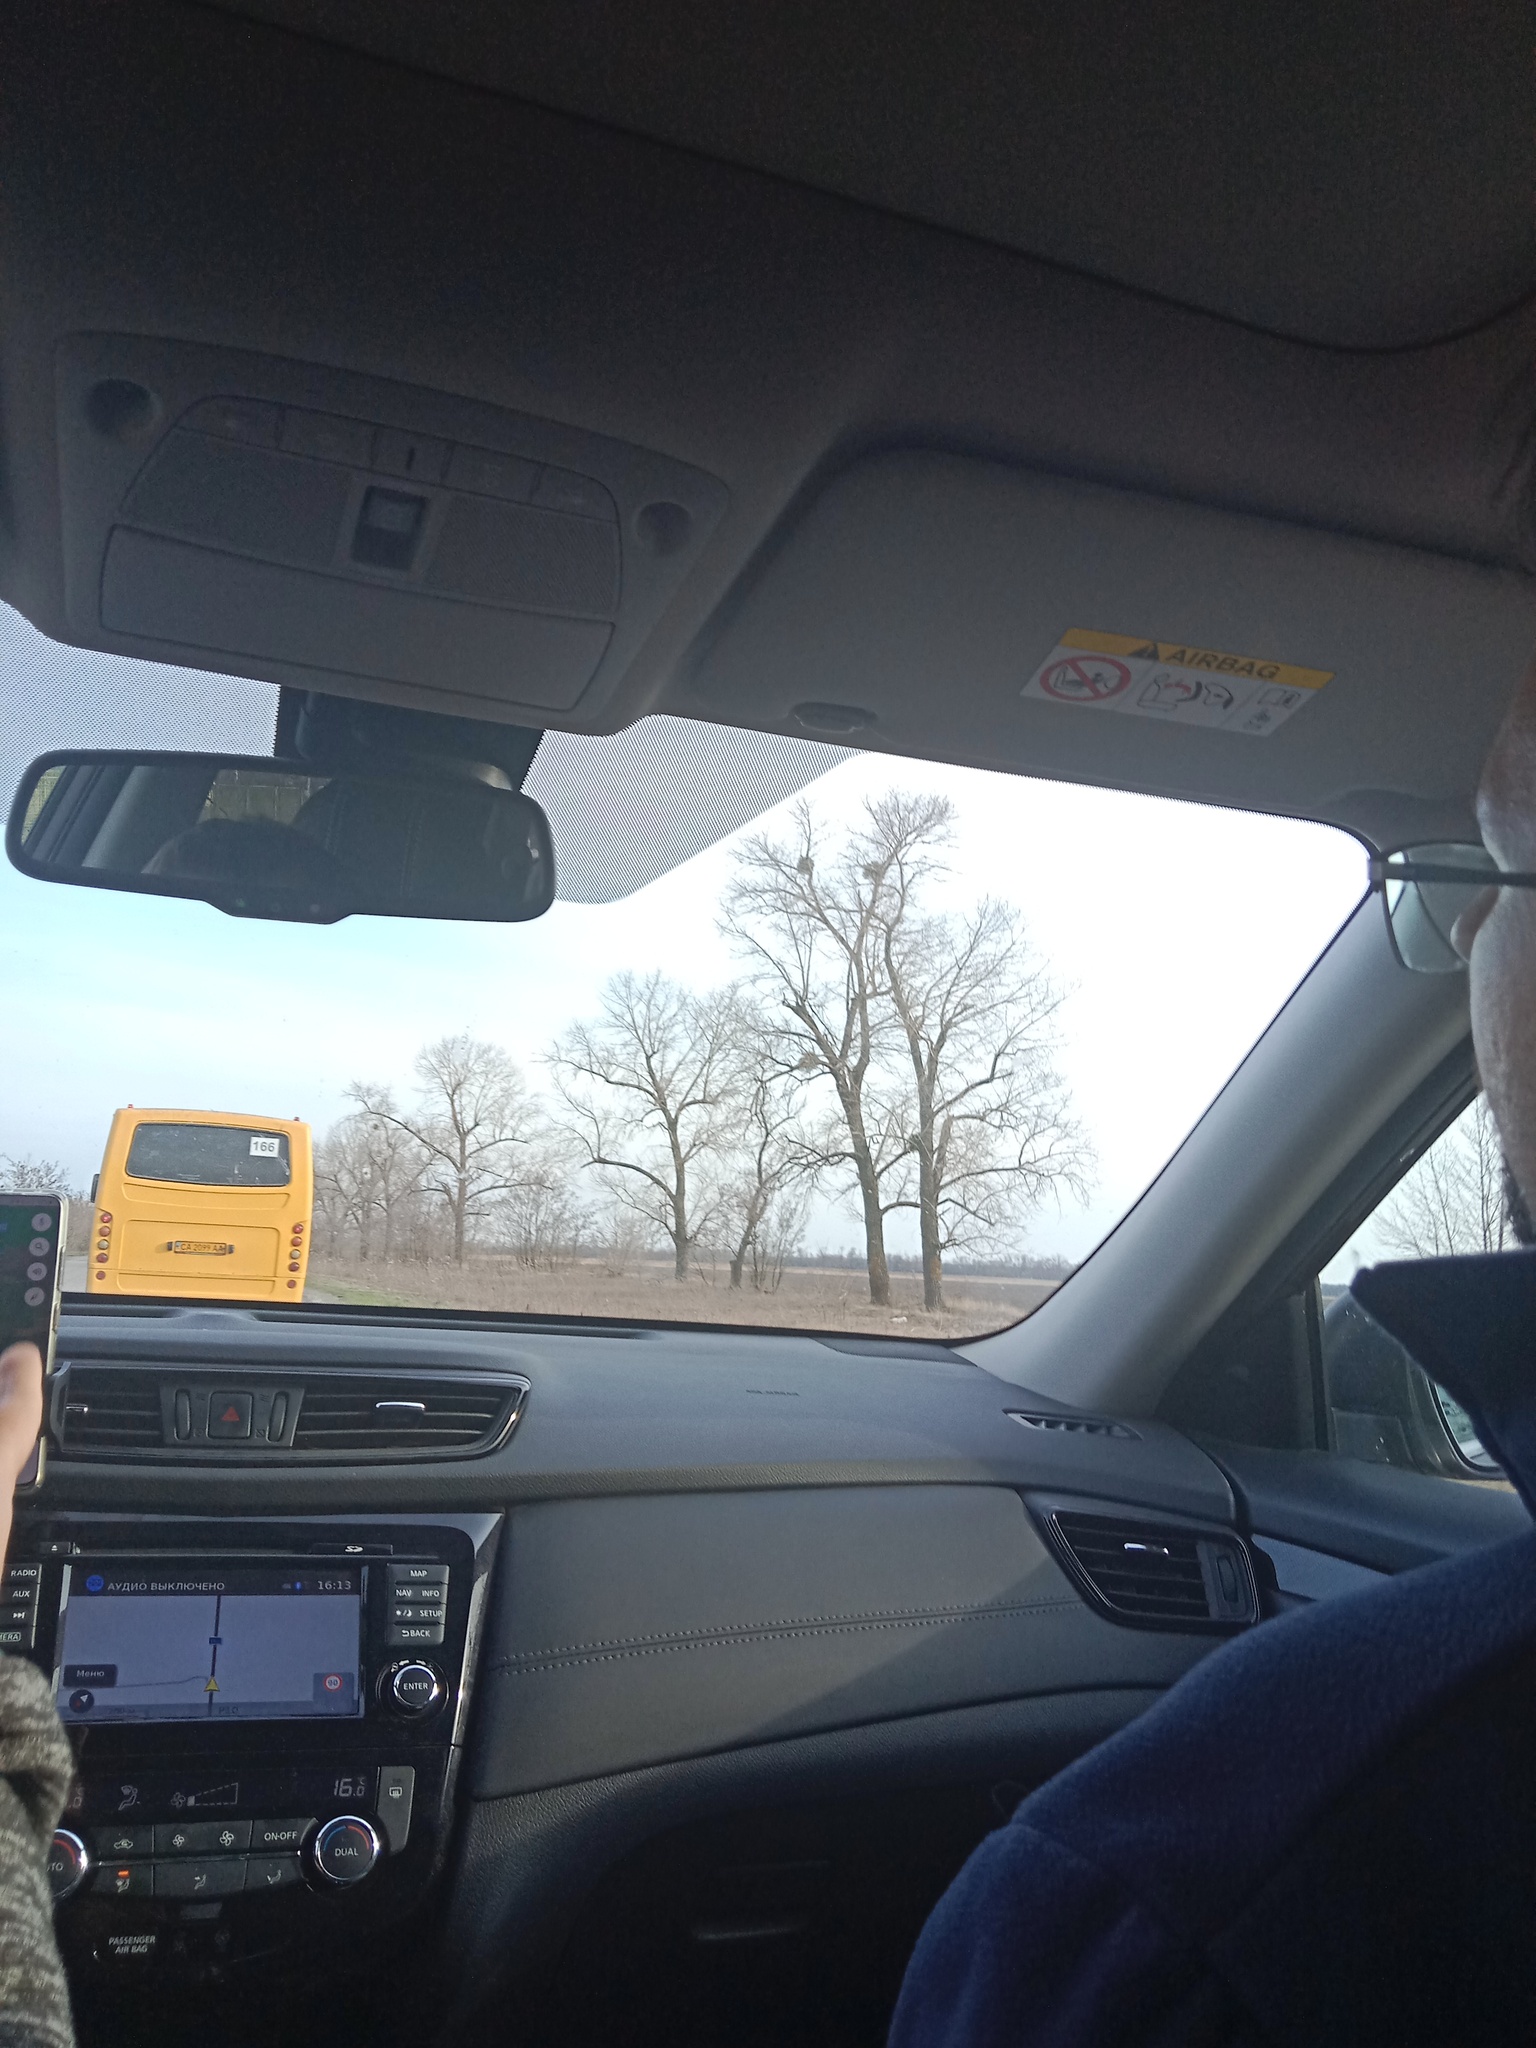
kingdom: Plantae
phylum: Tracheophyta
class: Magnoliopsida
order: Santalales
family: Viscaceae
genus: Viscum
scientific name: Viscum album
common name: Mistletoe
